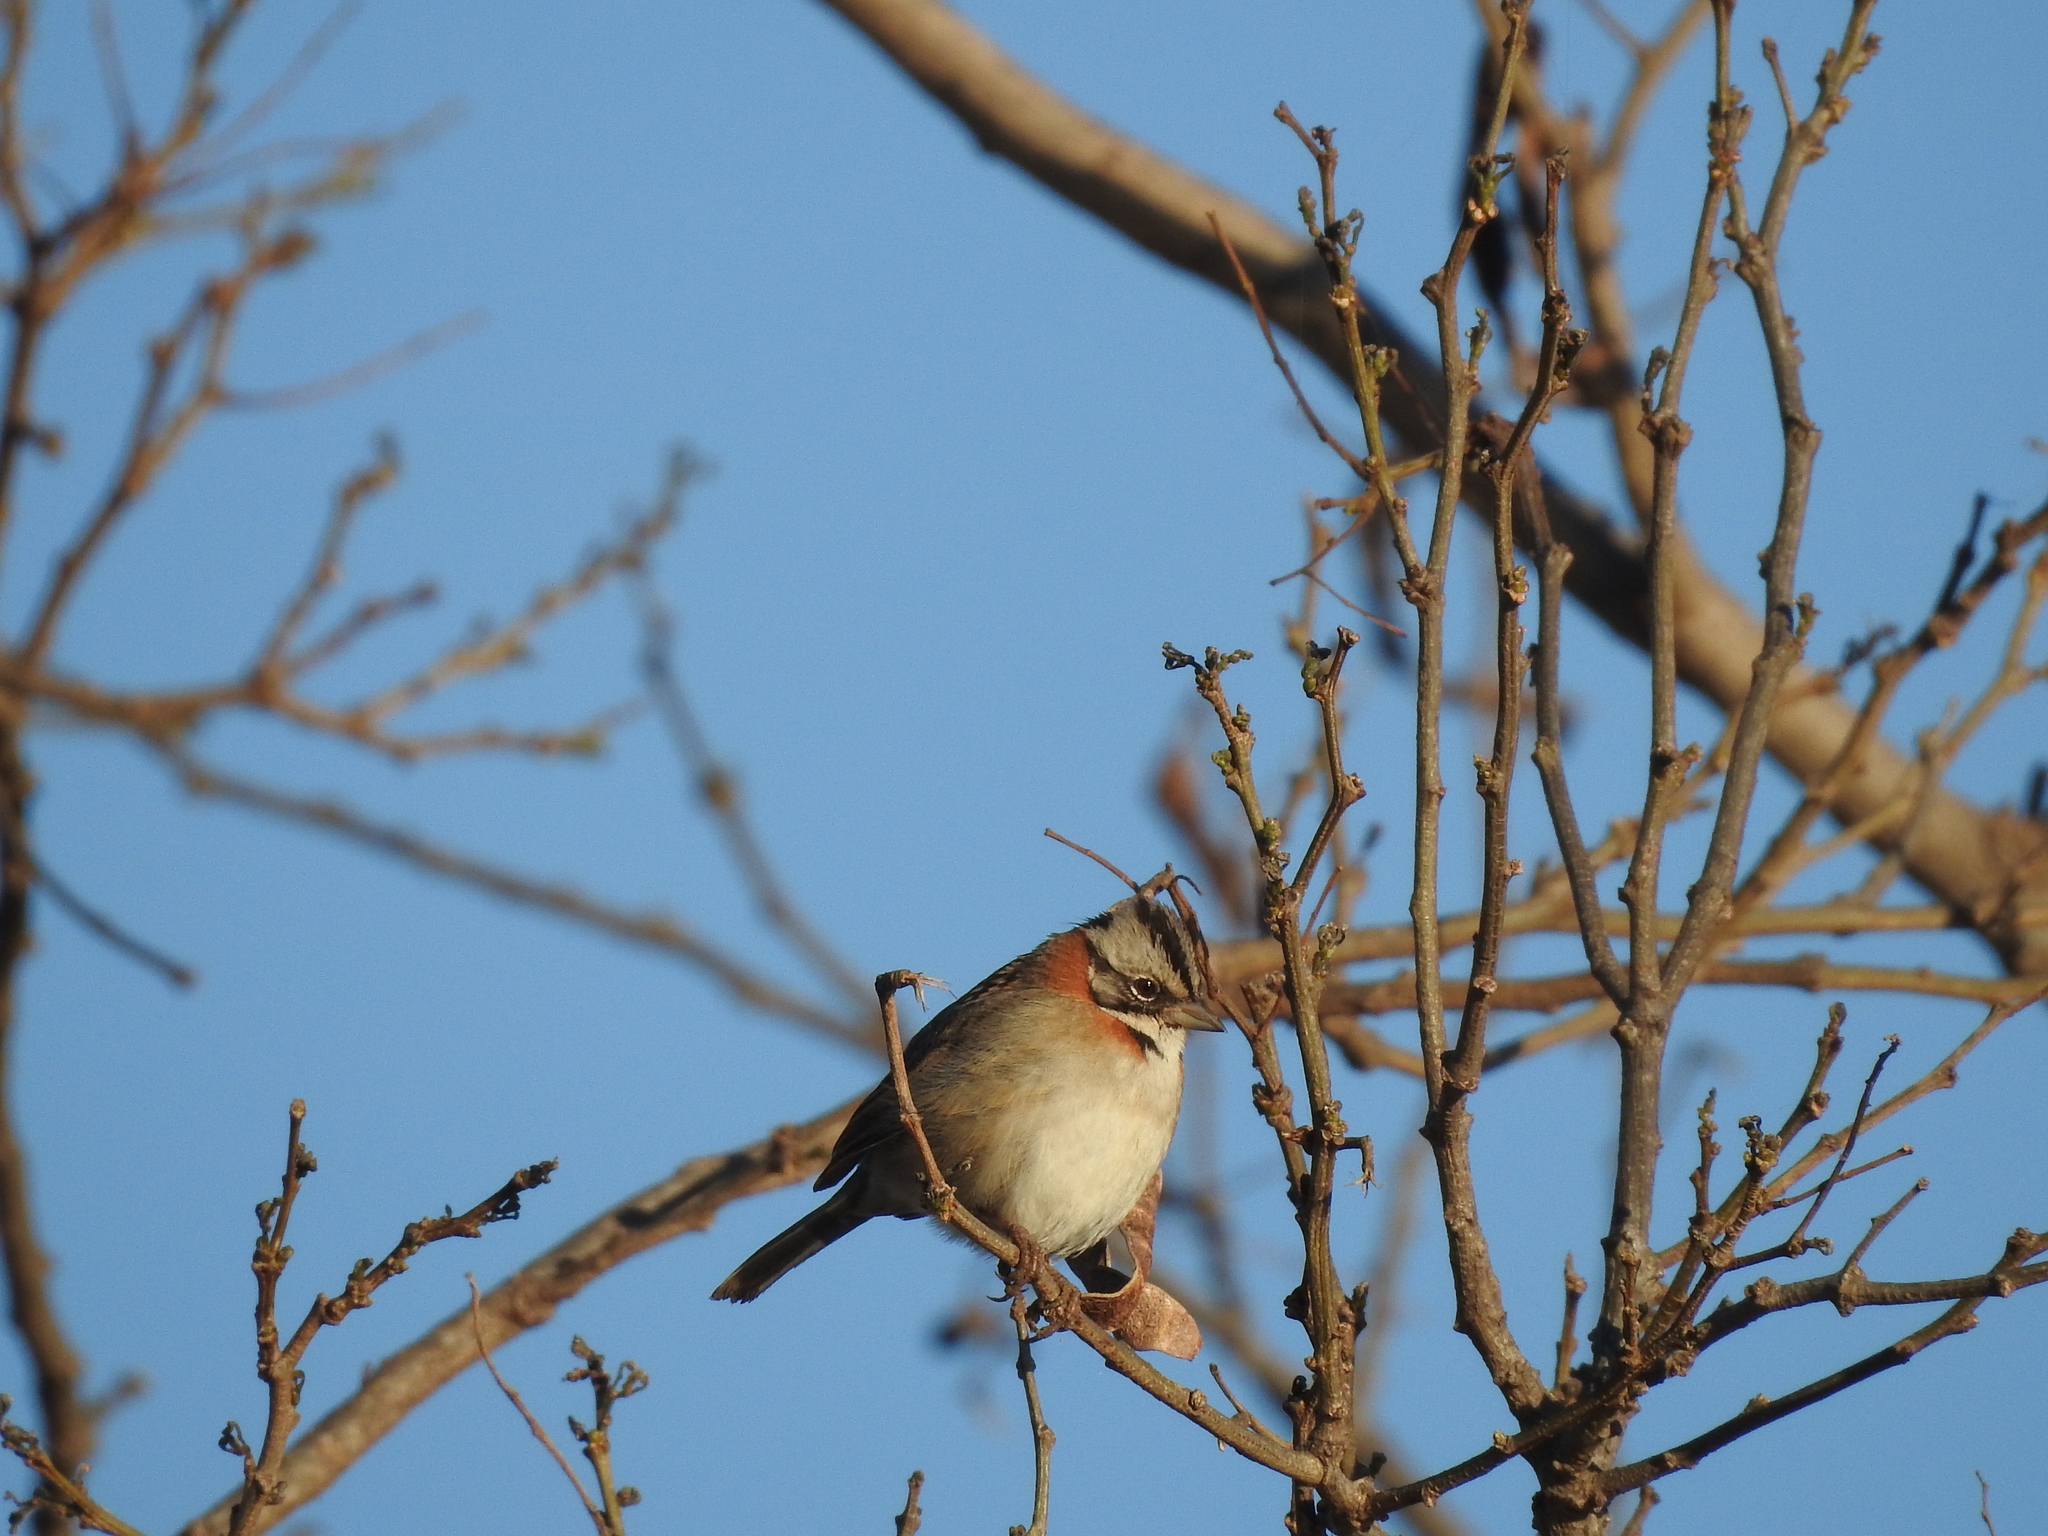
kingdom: Animalia
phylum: Chordata
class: Aves
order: Passeriformes
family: Passerellidae
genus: Zonotrichia
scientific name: Zonotrichia capensis
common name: Rufous-collared sparrow
